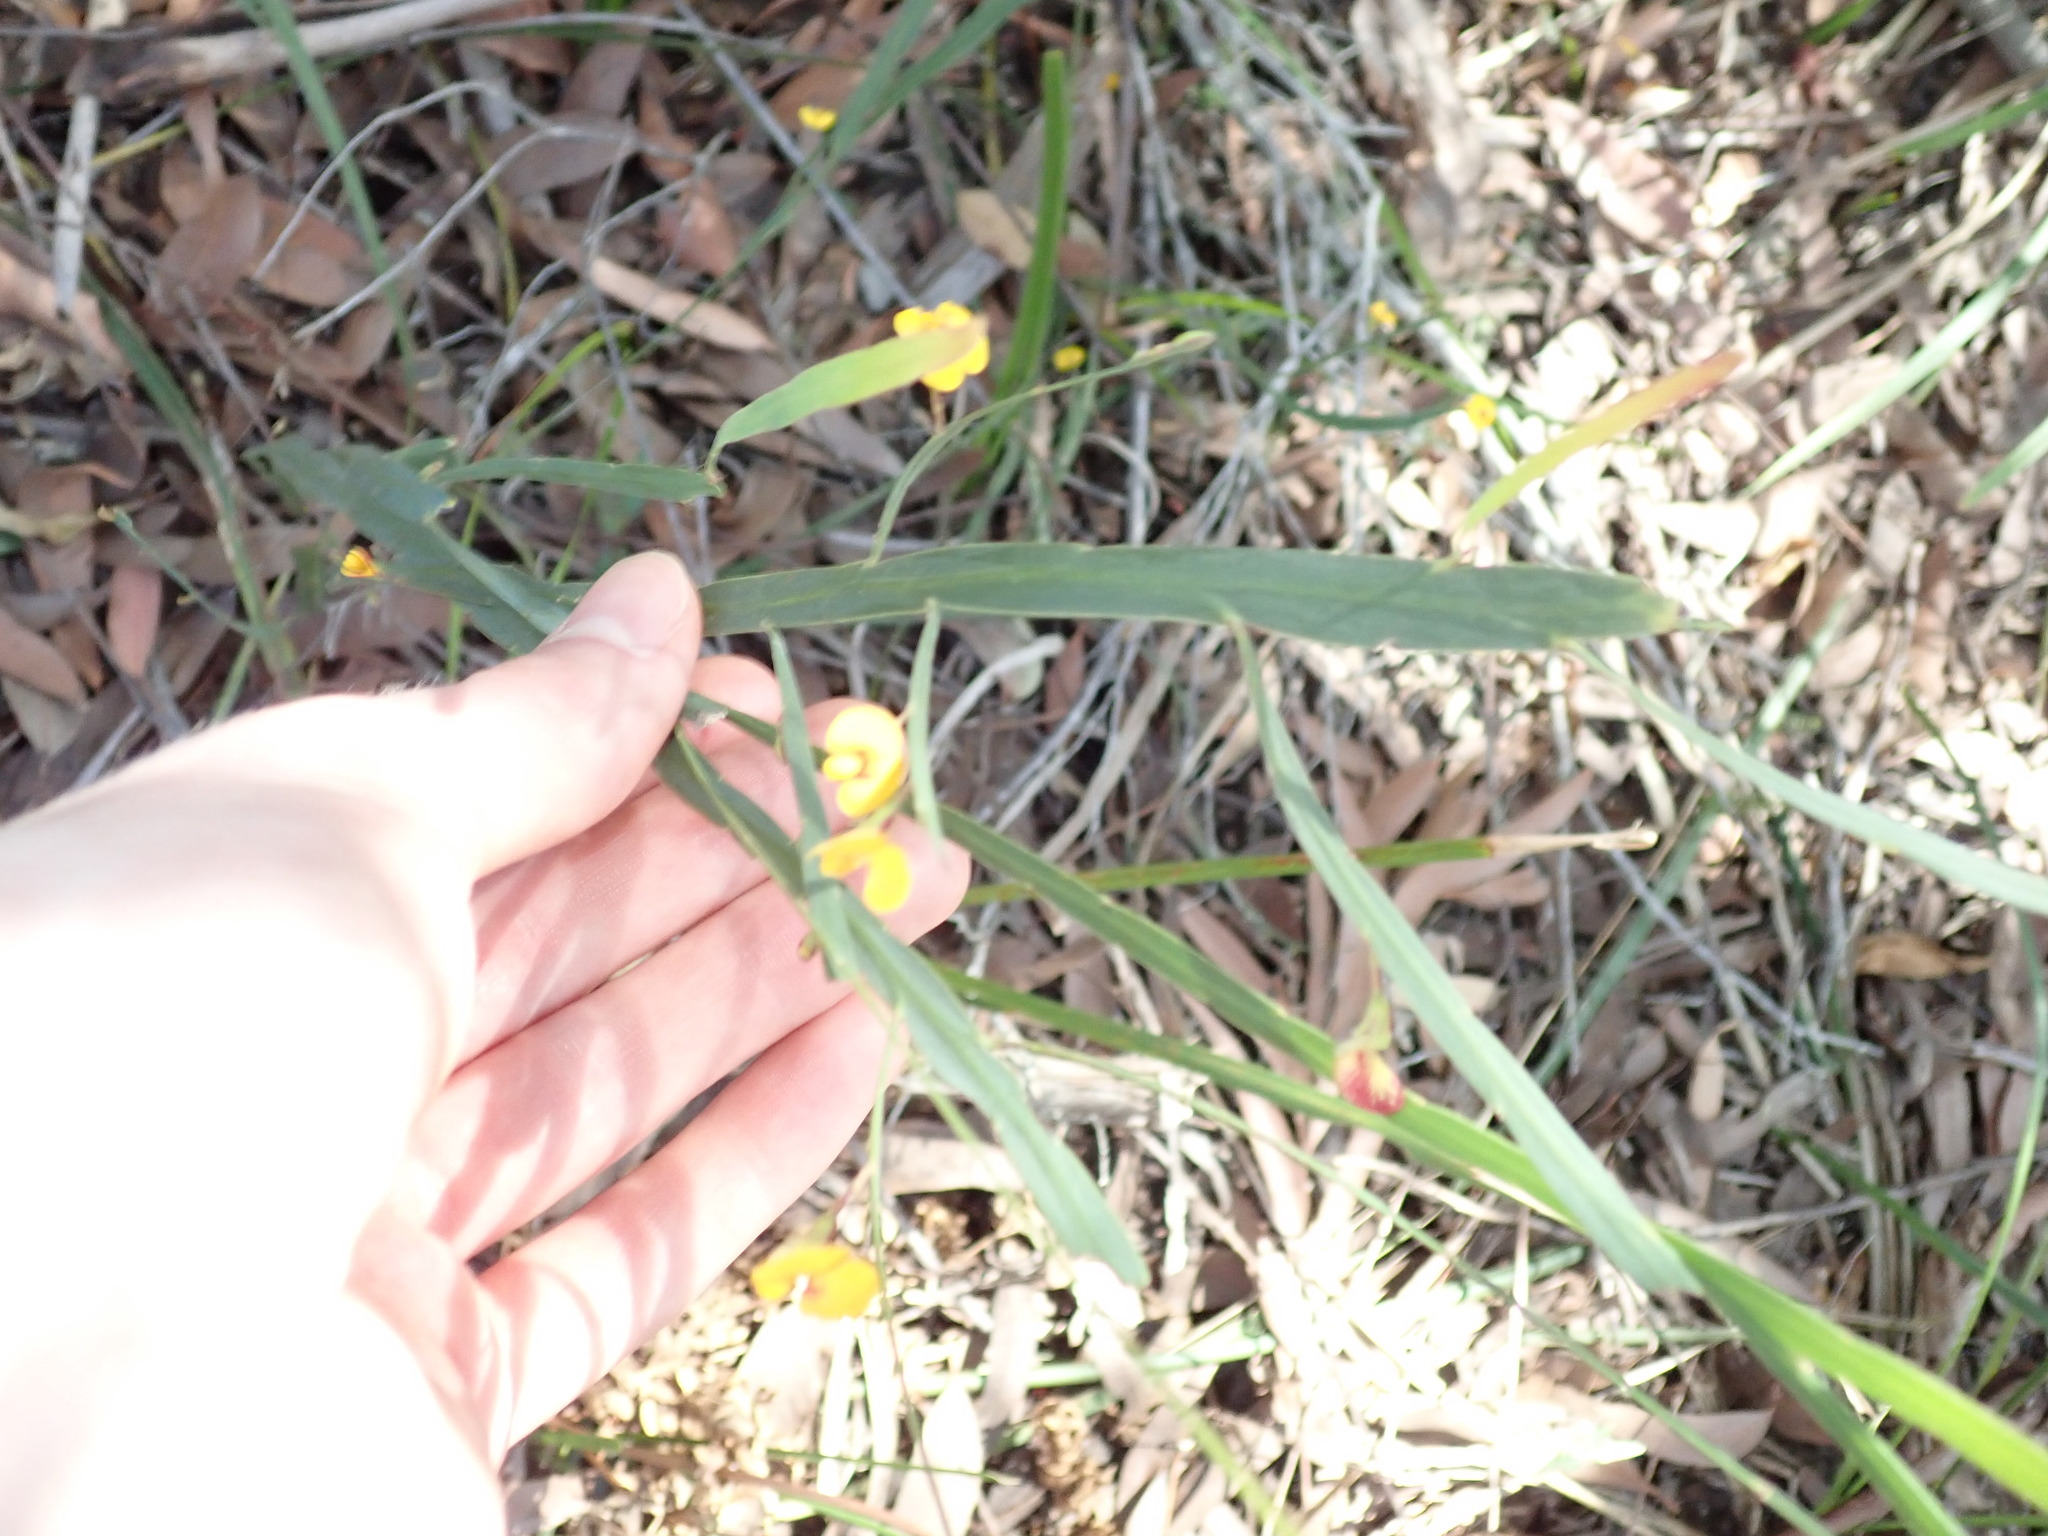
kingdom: Plantae
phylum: Tracheophyta
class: Magnoliopsida
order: Fabales
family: Fabaceae
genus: Bossiaea
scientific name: Bossiaea ensata
